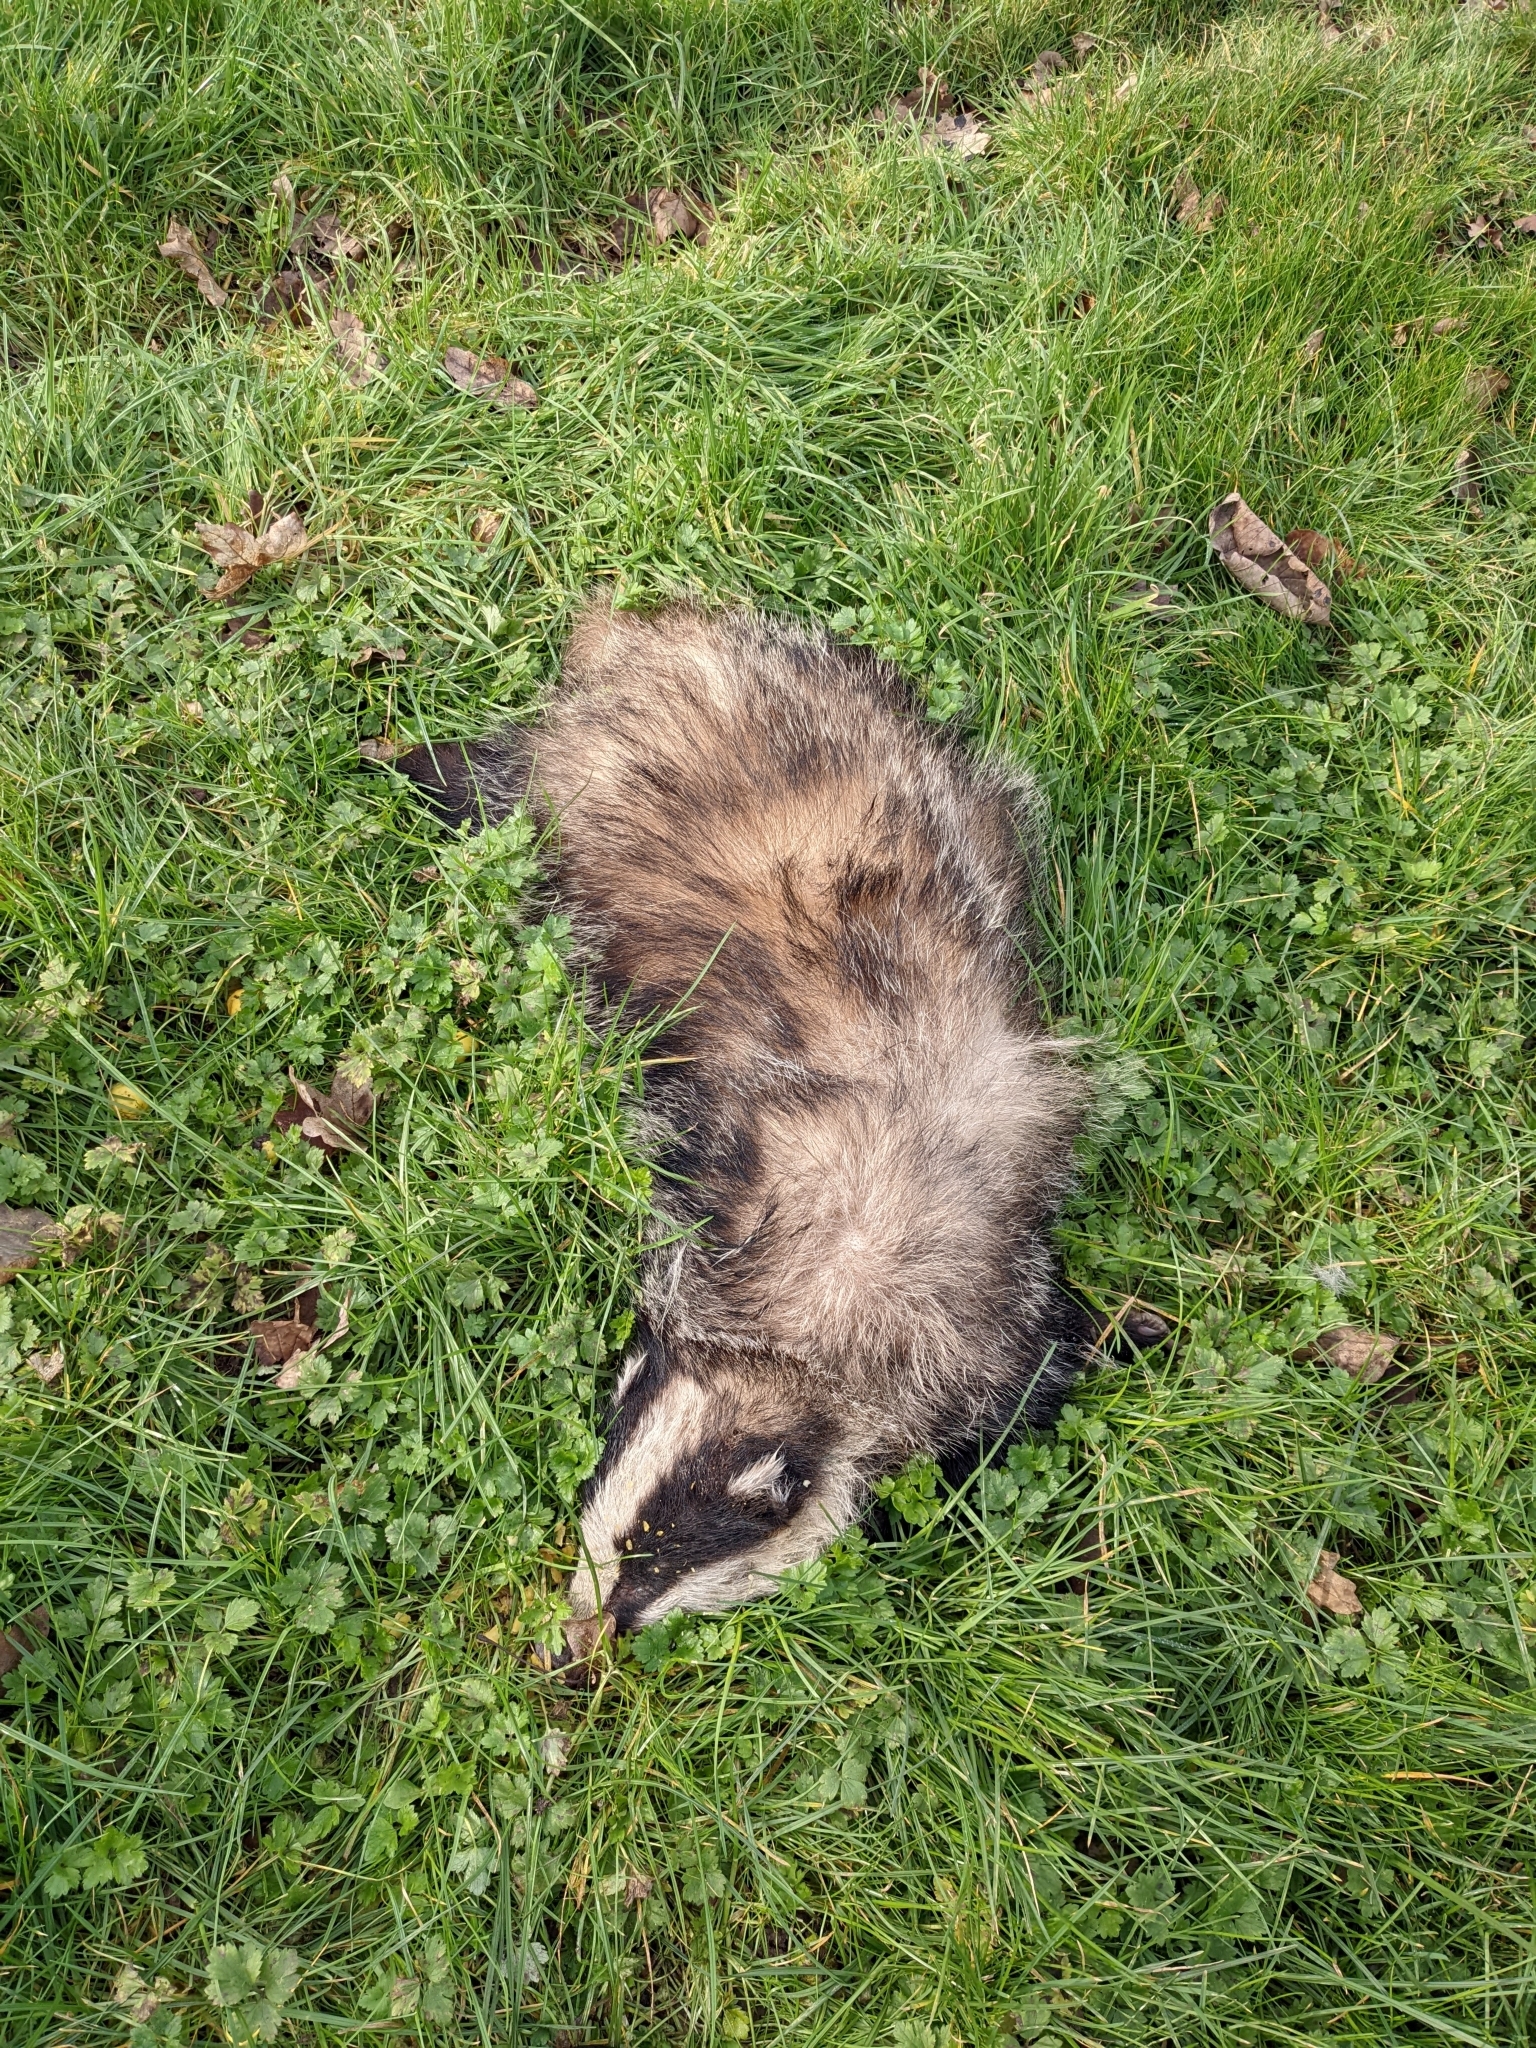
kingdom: Animalia
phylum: Chordata
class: Mammalia
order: Carnivora
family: Mustelidae
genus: Meles
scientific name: Meles meles
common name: Eurasian badger
